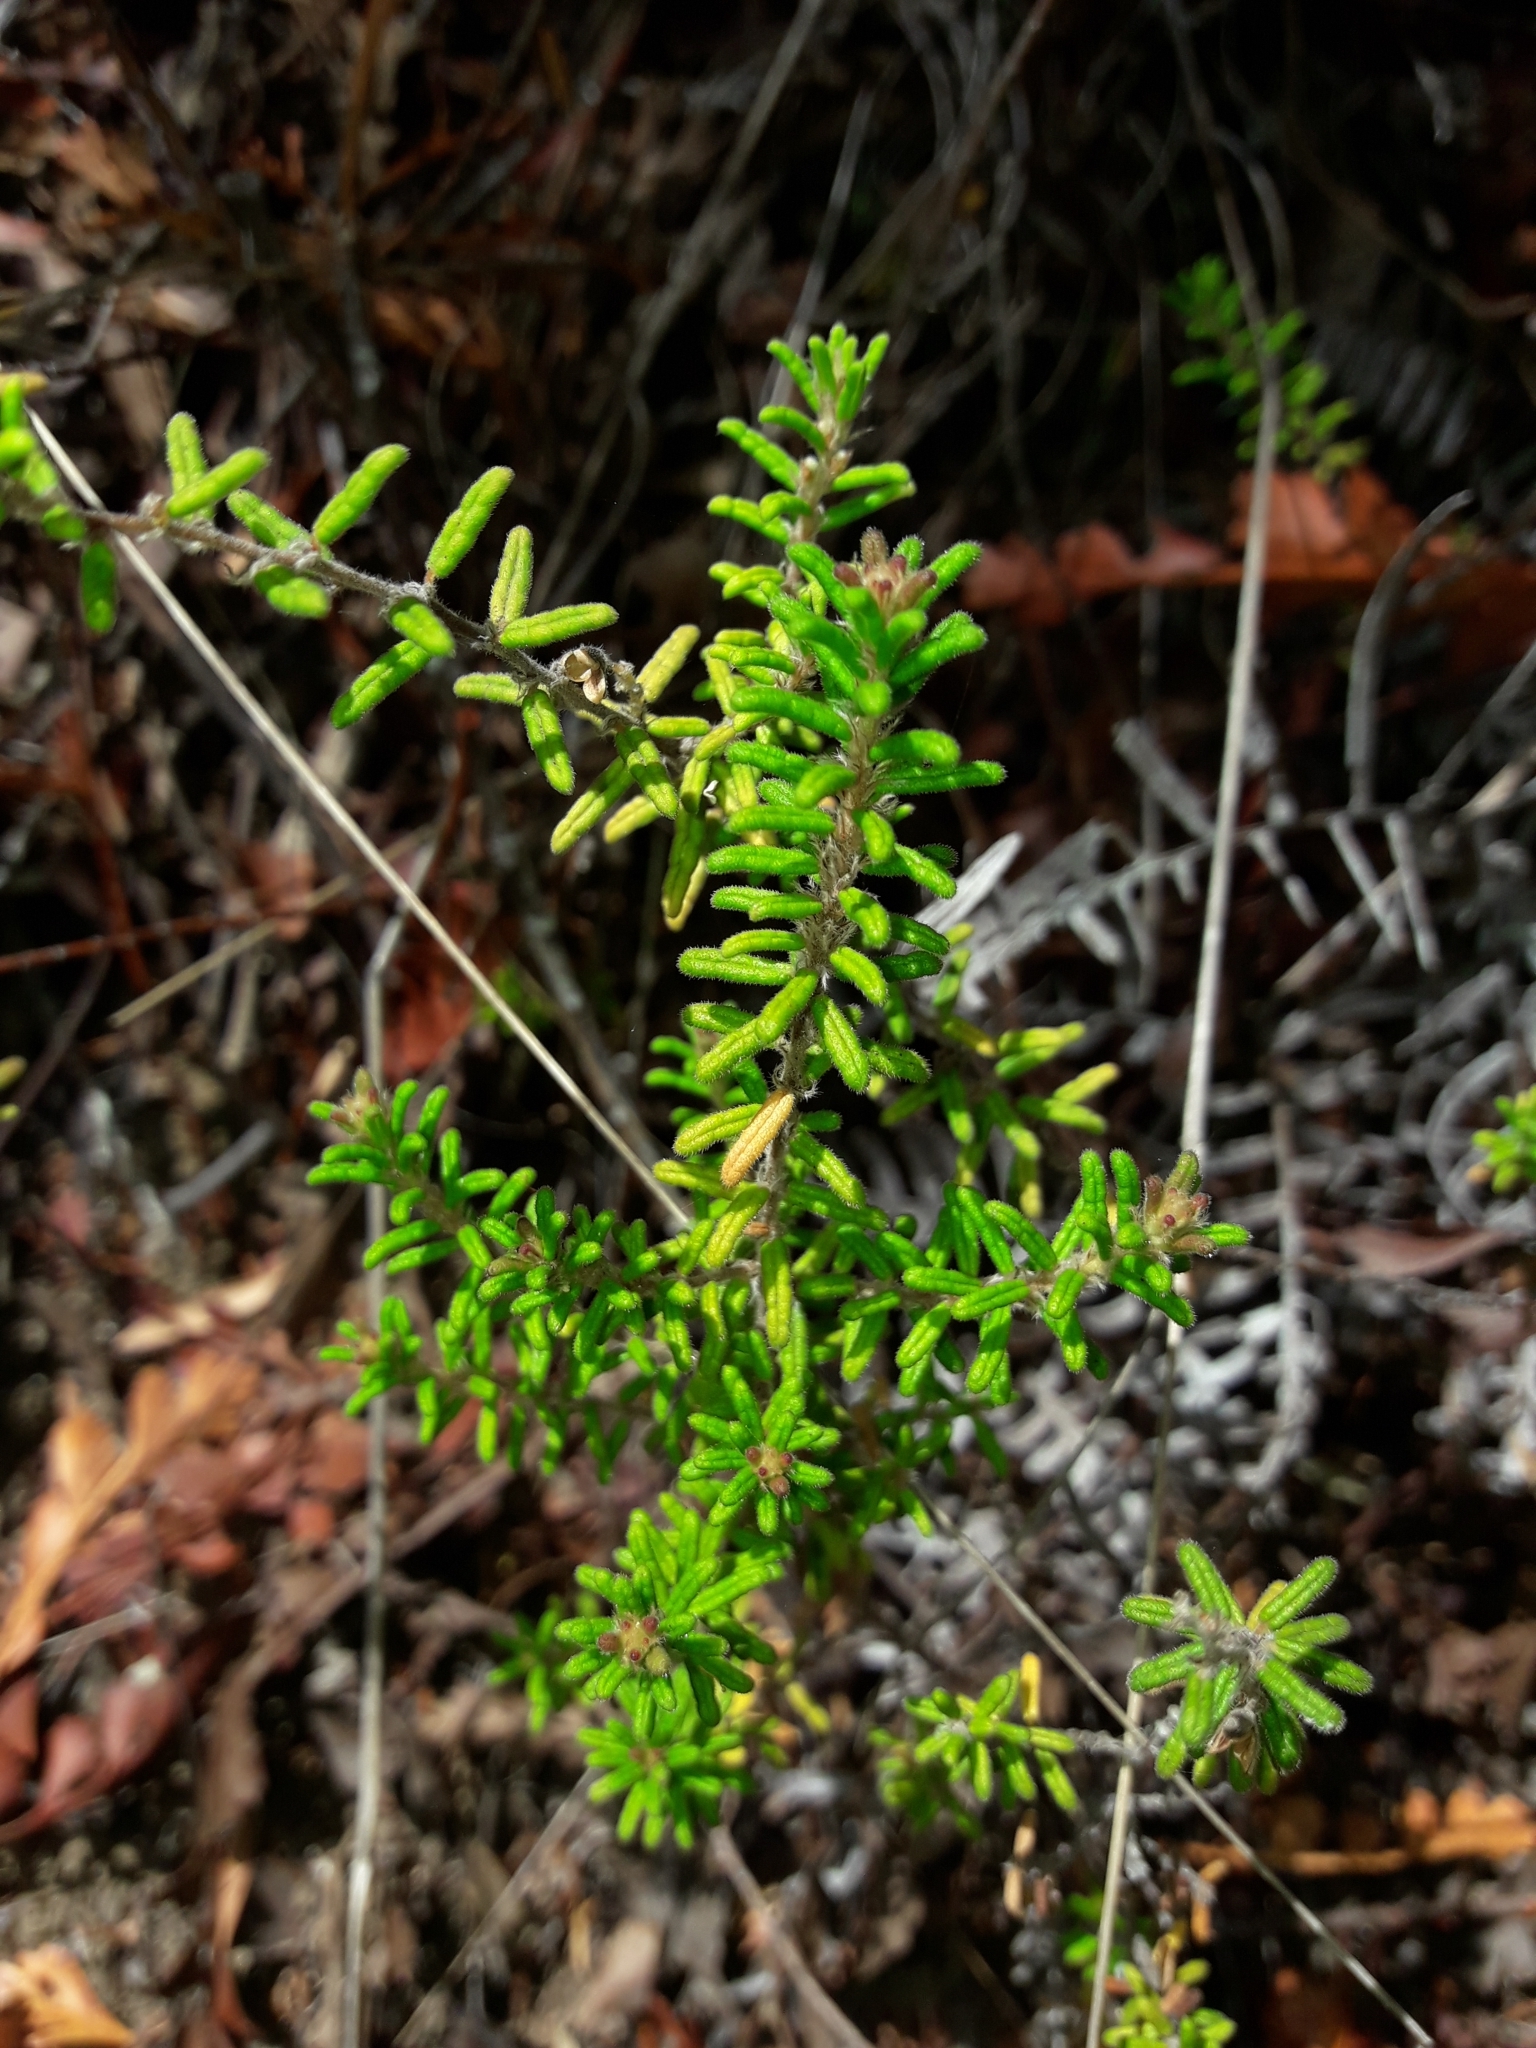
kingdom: Plantae
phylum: Tracheophyta
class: Magnoliopsida
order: Rosales
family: Rhamnaceae
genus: Pomaderris
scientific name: Pomaderris amoena
